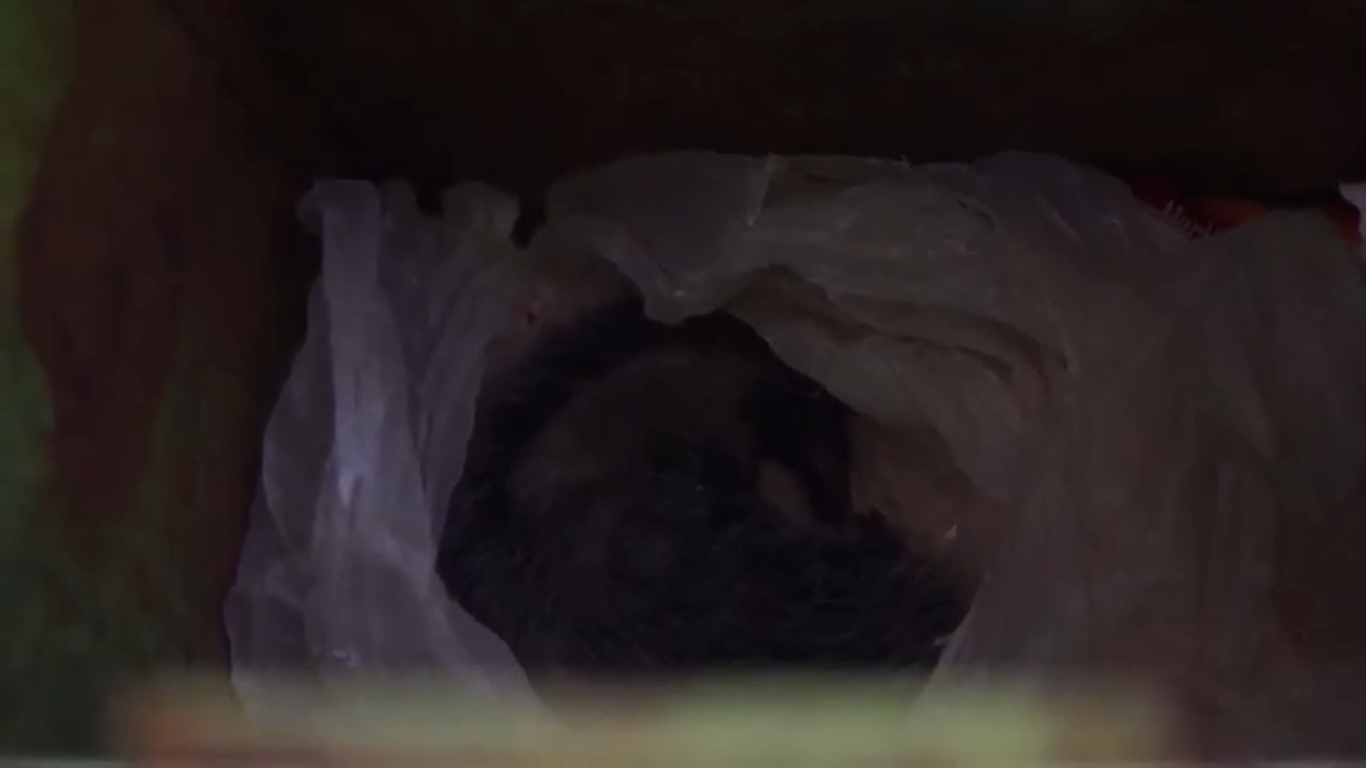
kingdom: Animalia
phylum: Chordata
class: Mammalia
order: Didelphimorphia
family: Didelphidae
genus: Didelphis
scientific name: Didelphis virginiana
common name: Virginia opossum
